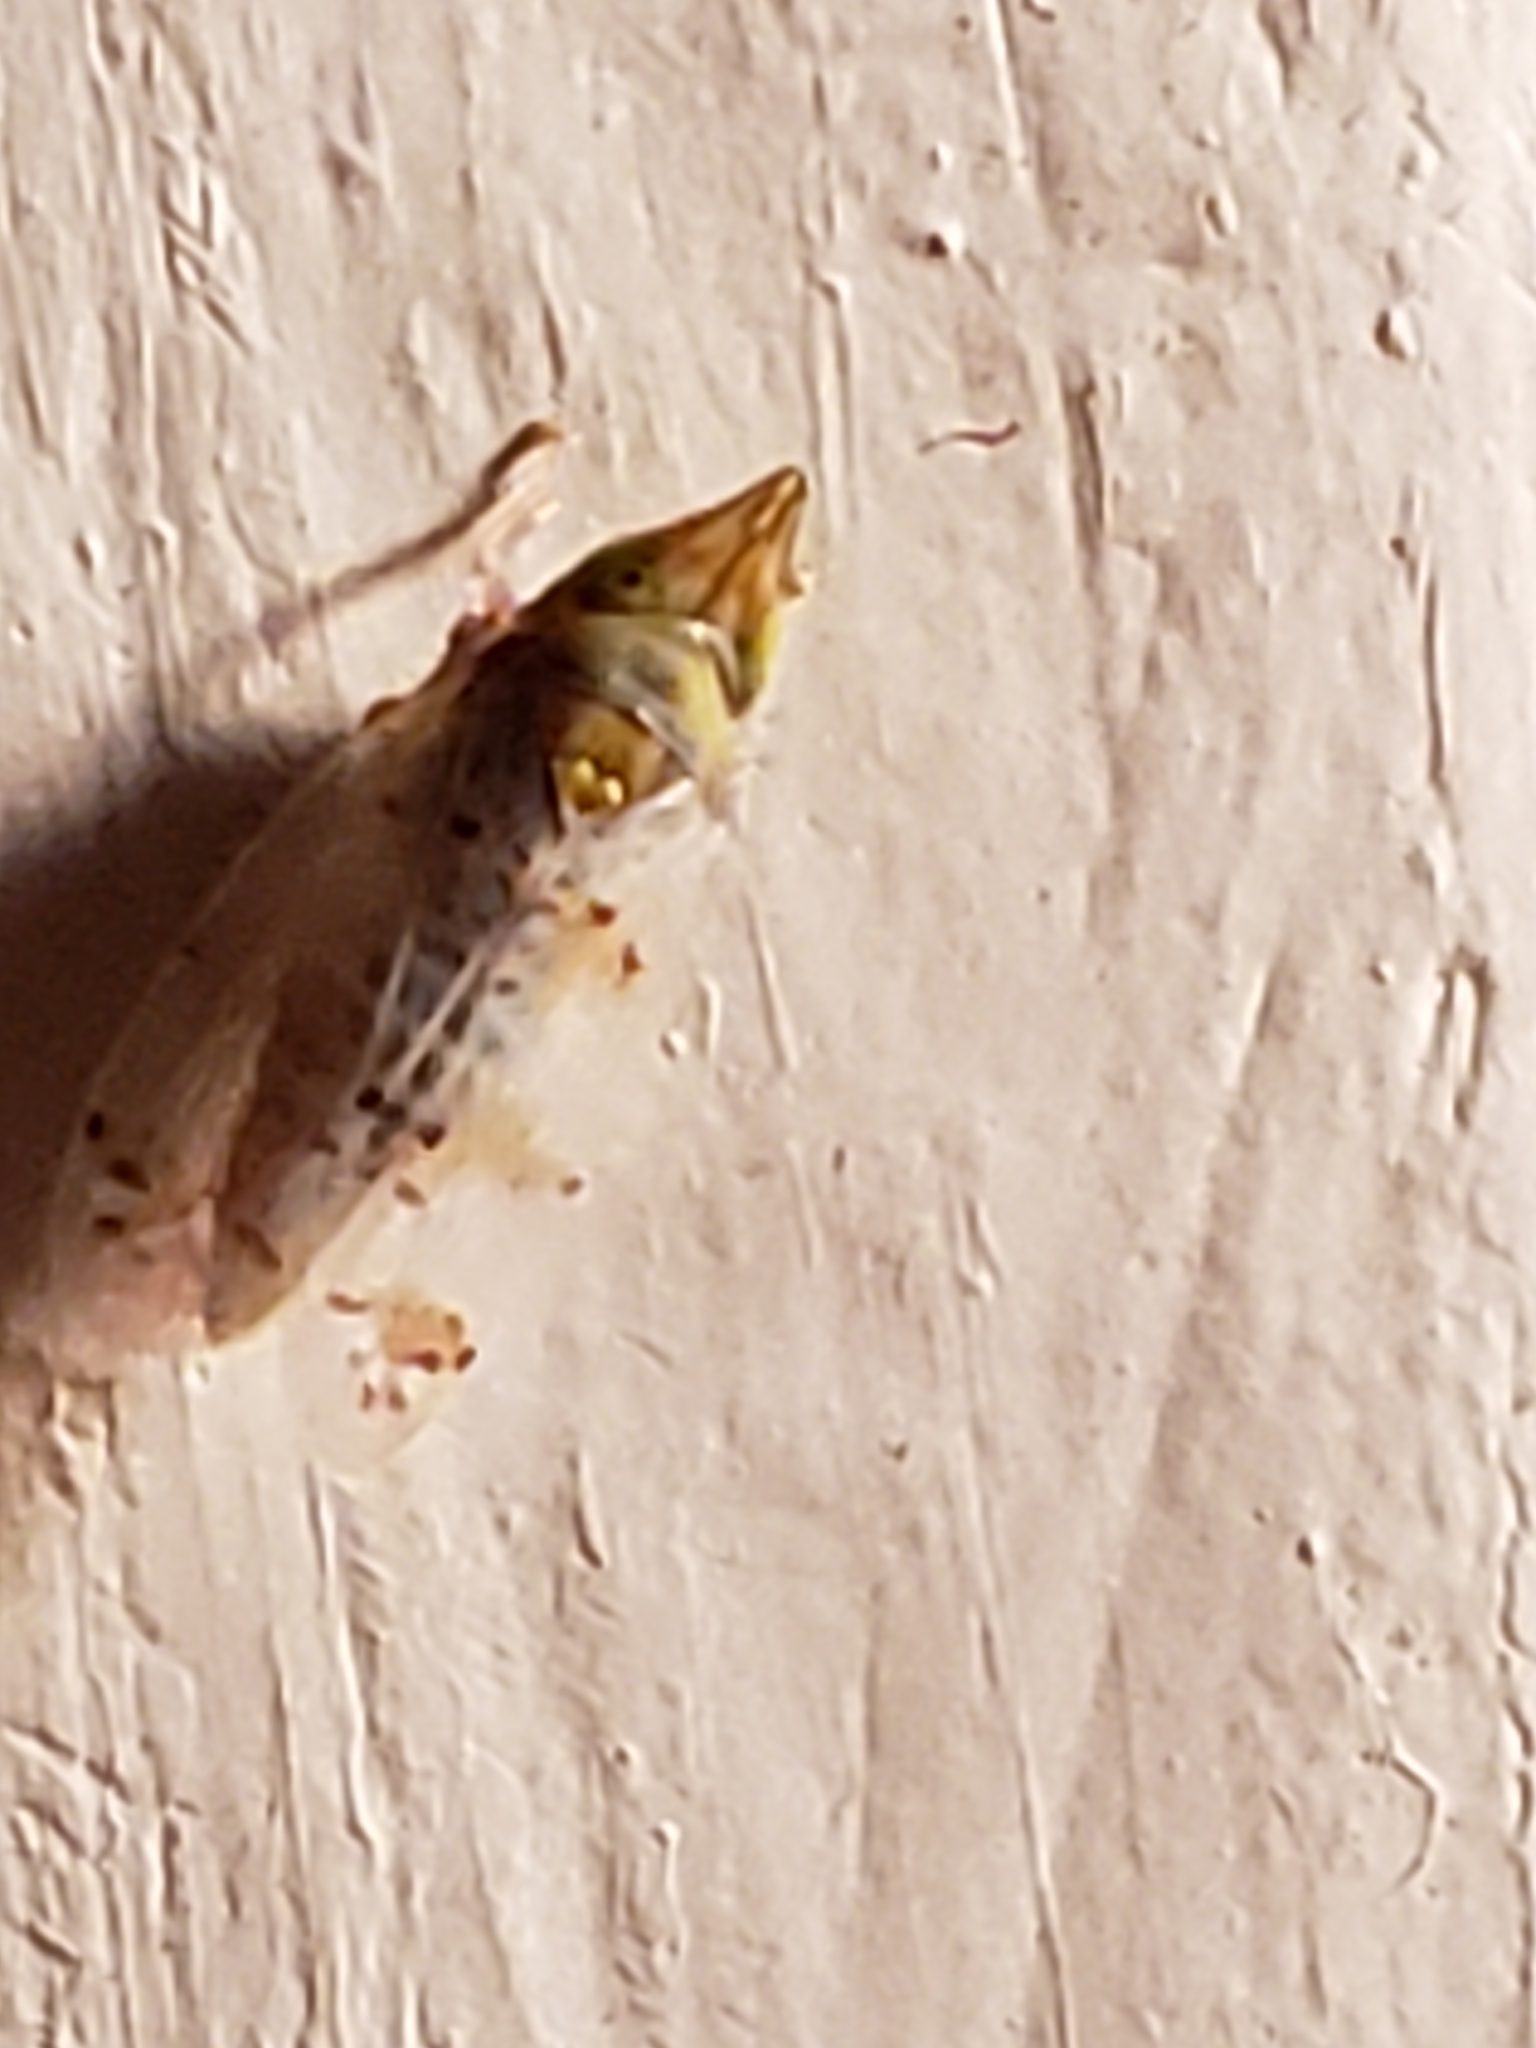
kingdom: Animalia
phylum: Arthropoda
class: Insecta
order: Hemiptera
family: Cicadellidae
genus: Japananus
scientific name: Japananus hyalinus
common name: The japanese maple leafhopper
